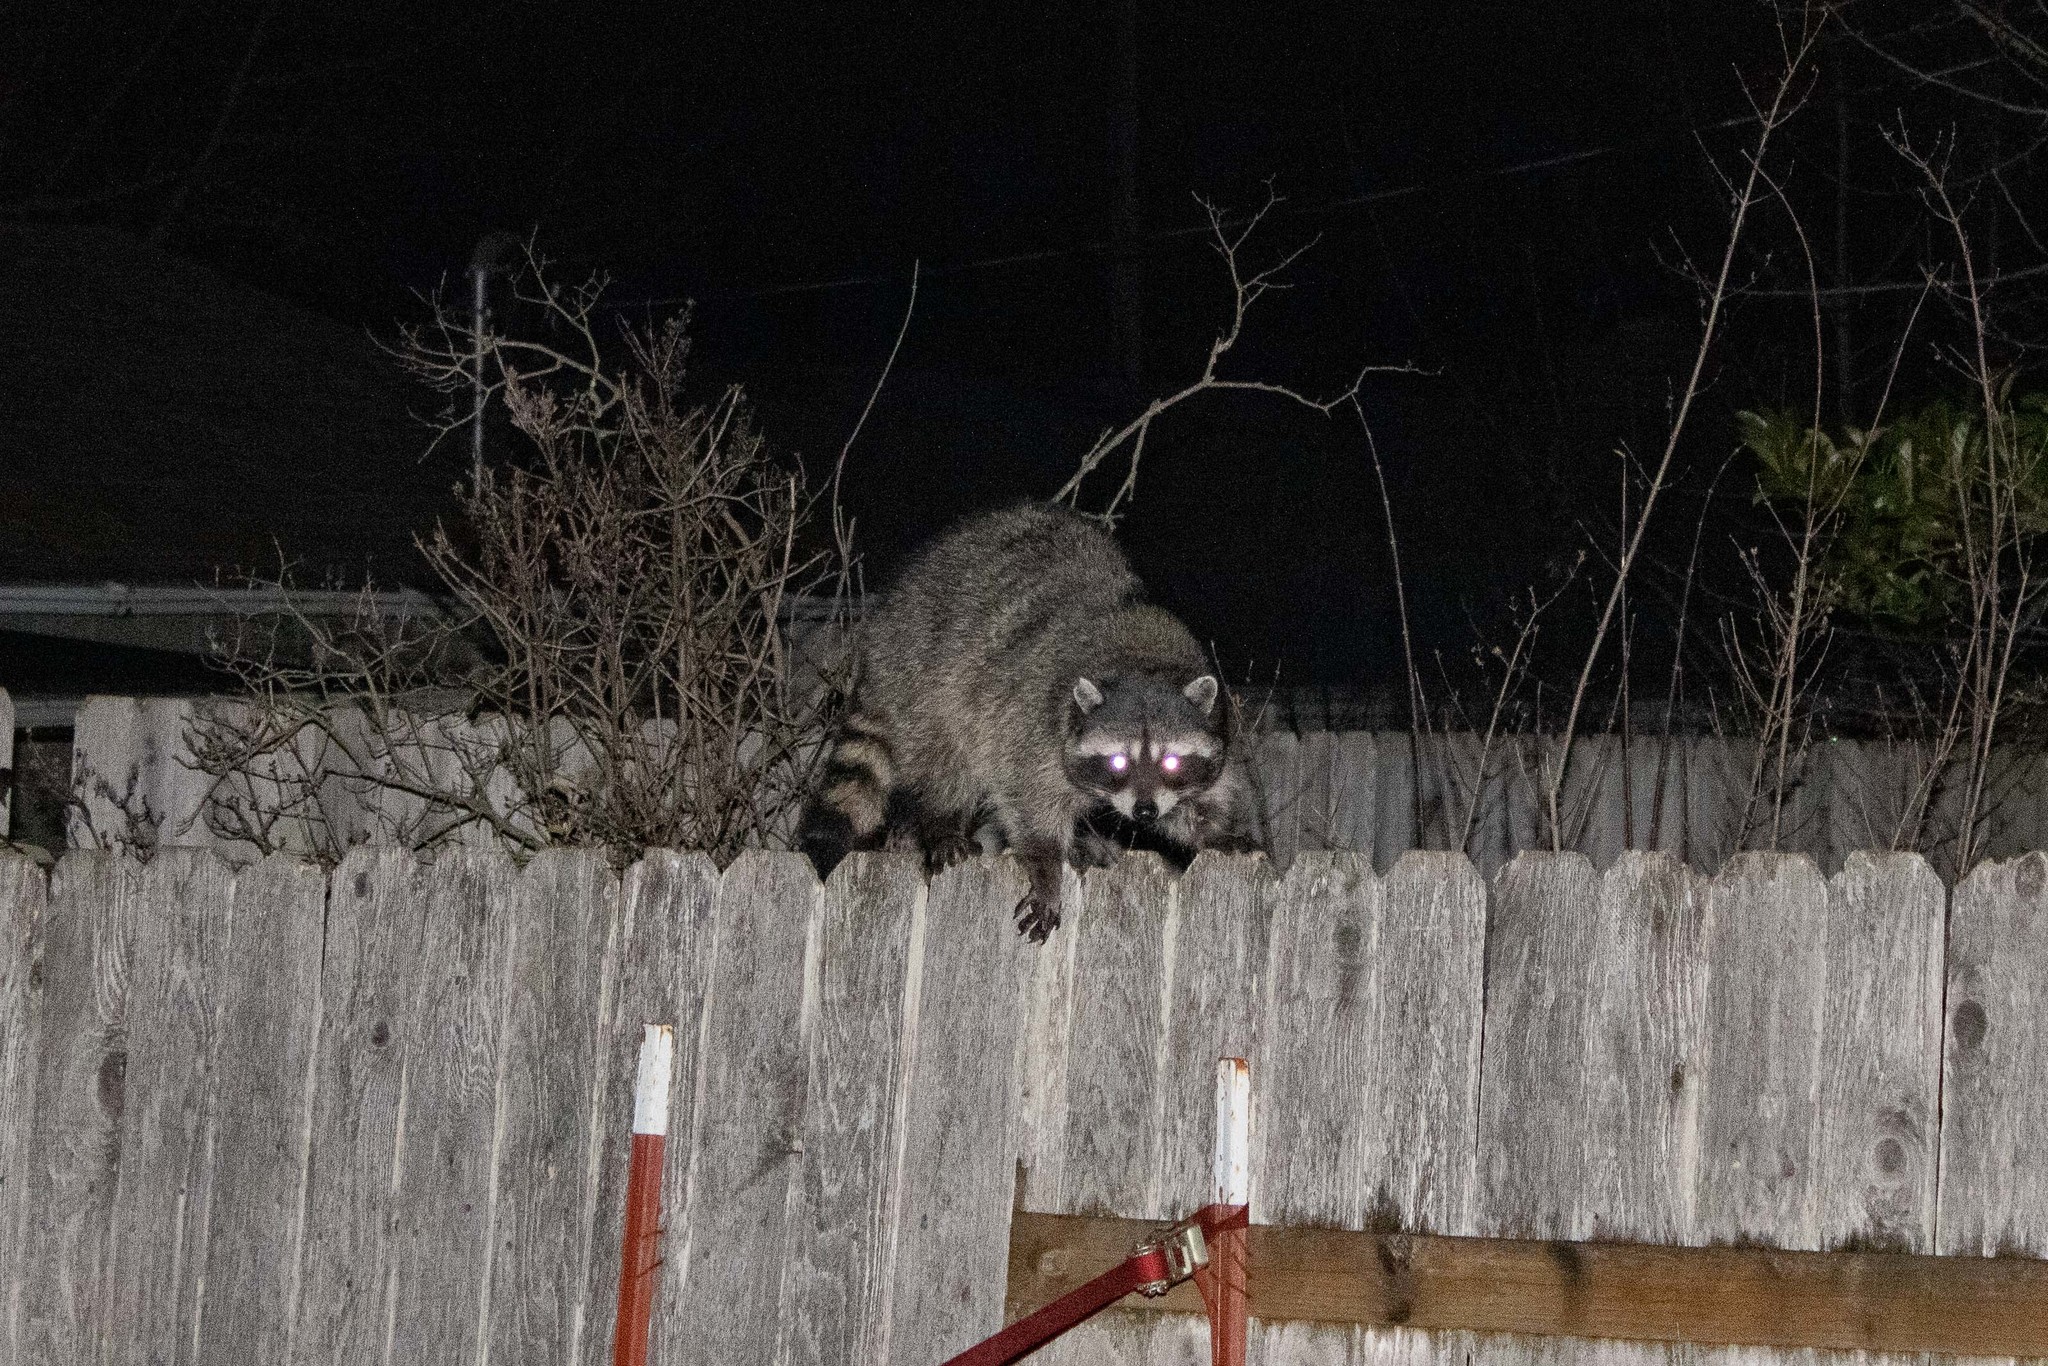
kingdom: Animalia
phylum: Chordata
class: Mammalia
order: Carnivora
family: Procyonidae
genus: Procyon
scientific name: Procyon lotor
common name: Raccoon
